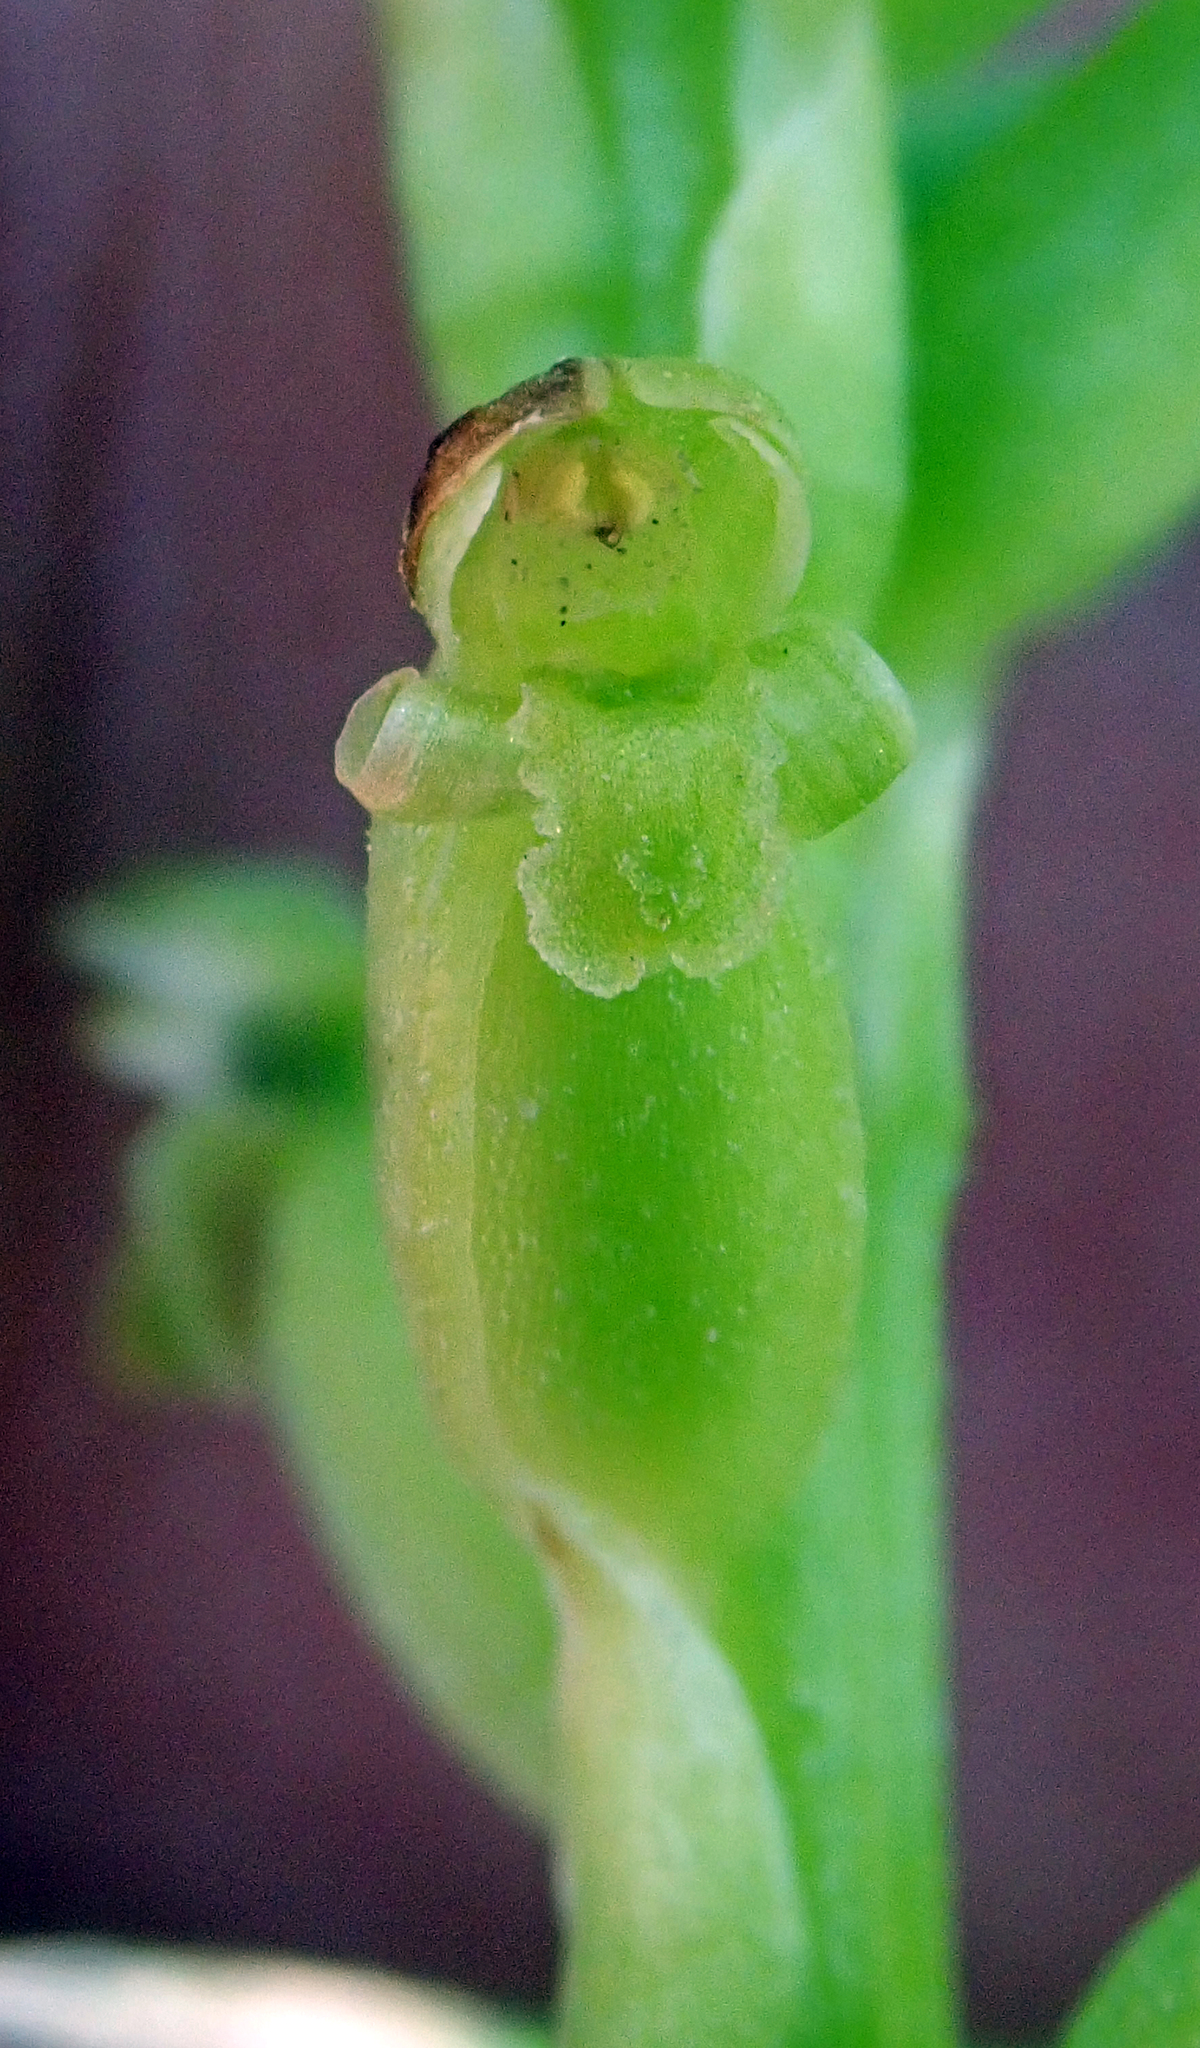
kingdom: Plantae
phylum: Tracheophyta
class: Liliopsida
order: Asparagales
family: Orchidaceae
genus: Microtis
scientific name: Microtis unifolia
